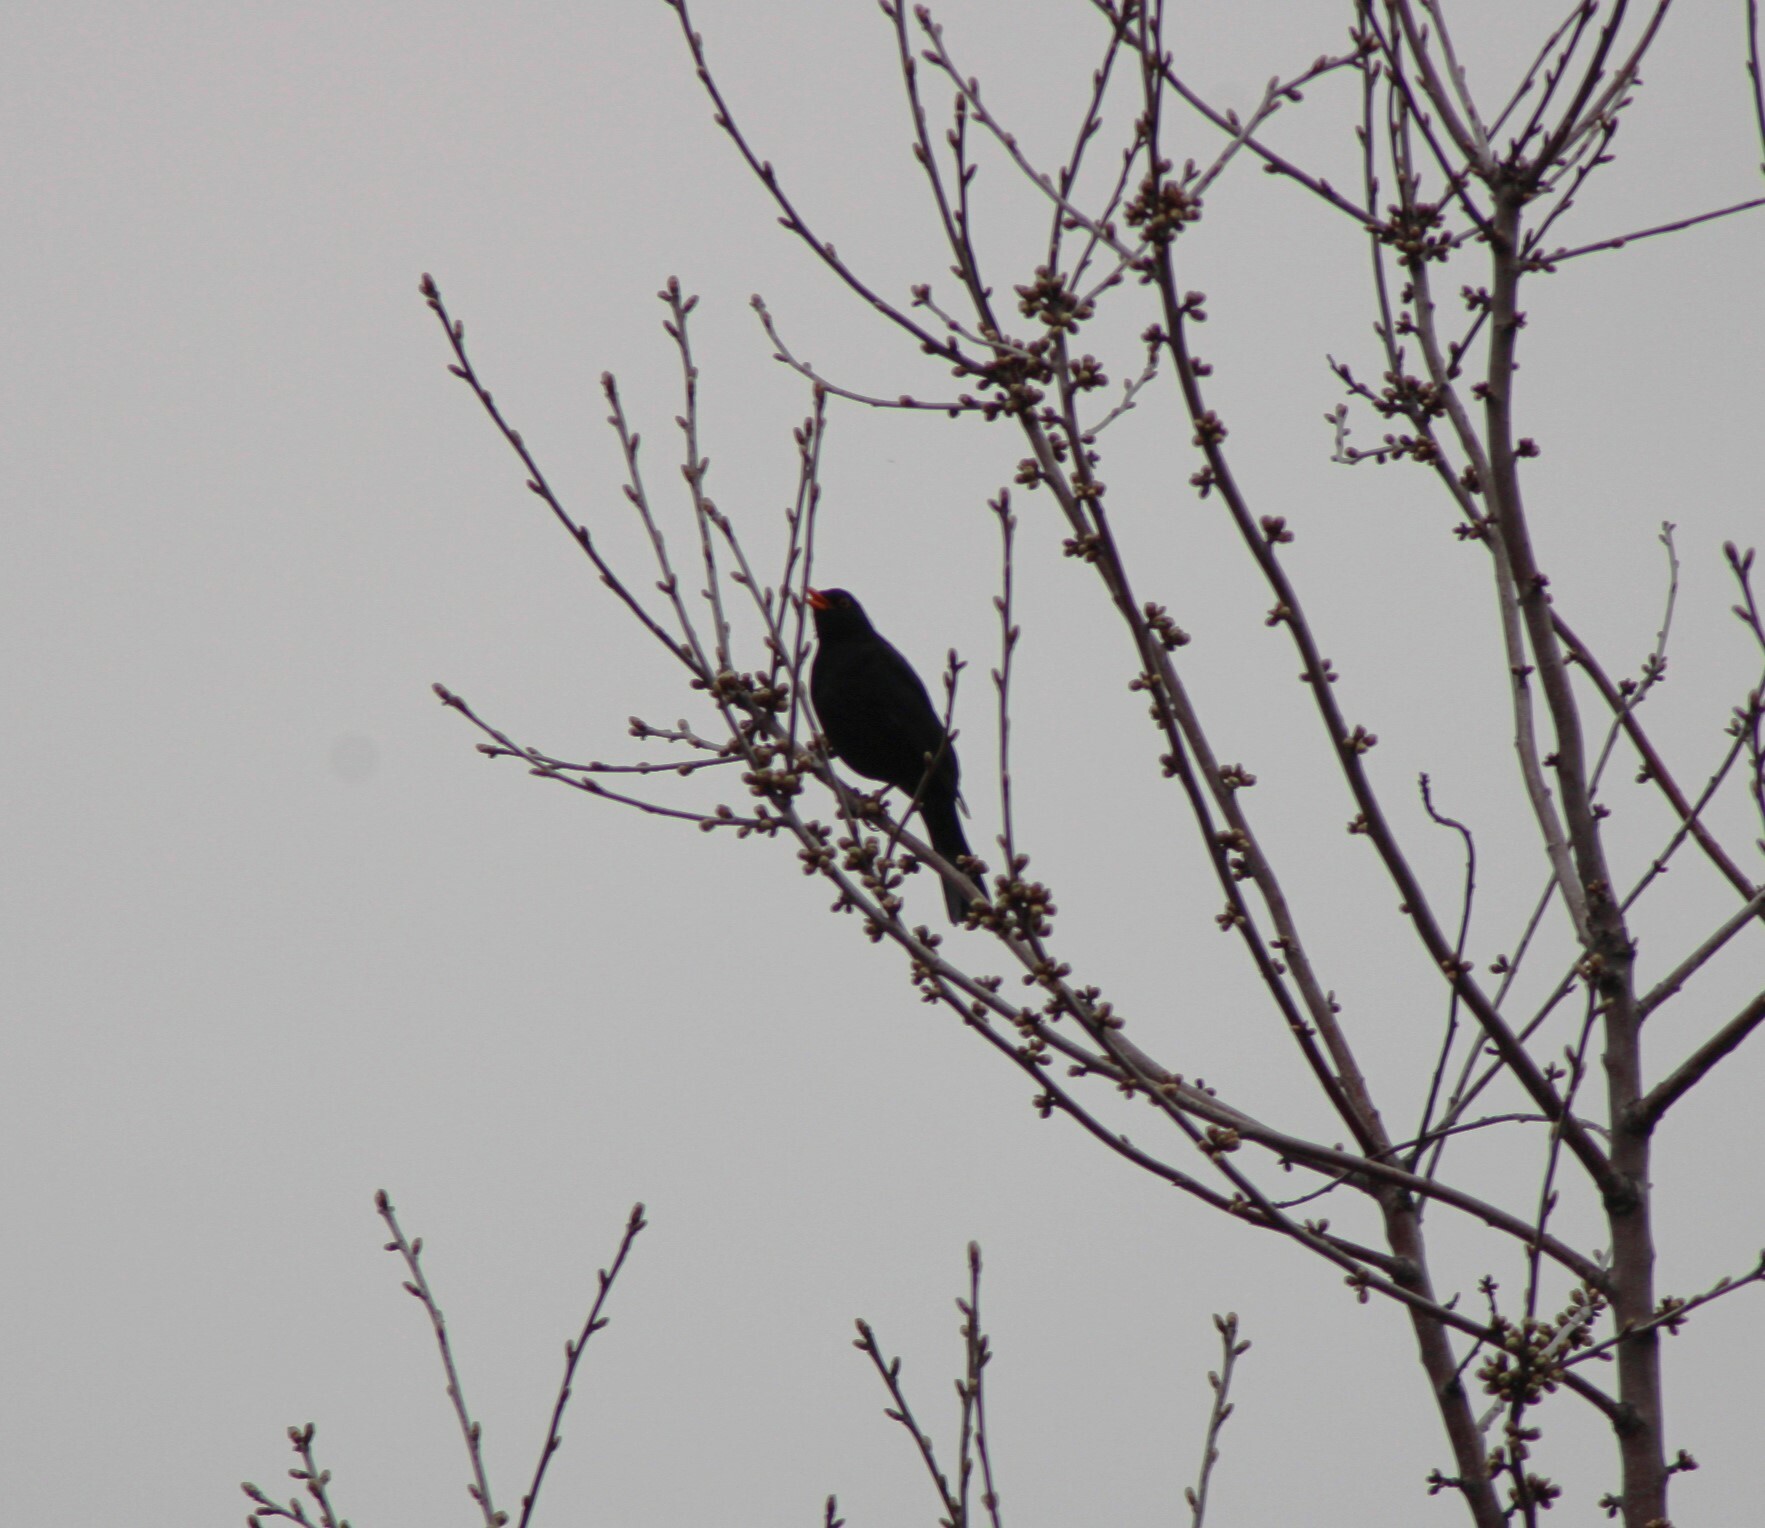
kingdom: Animalia
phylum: Chordata
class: Aves
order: Passeriformes
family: Turdidae
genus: Turdus
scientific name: Turdus merula
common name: Common blackbird
